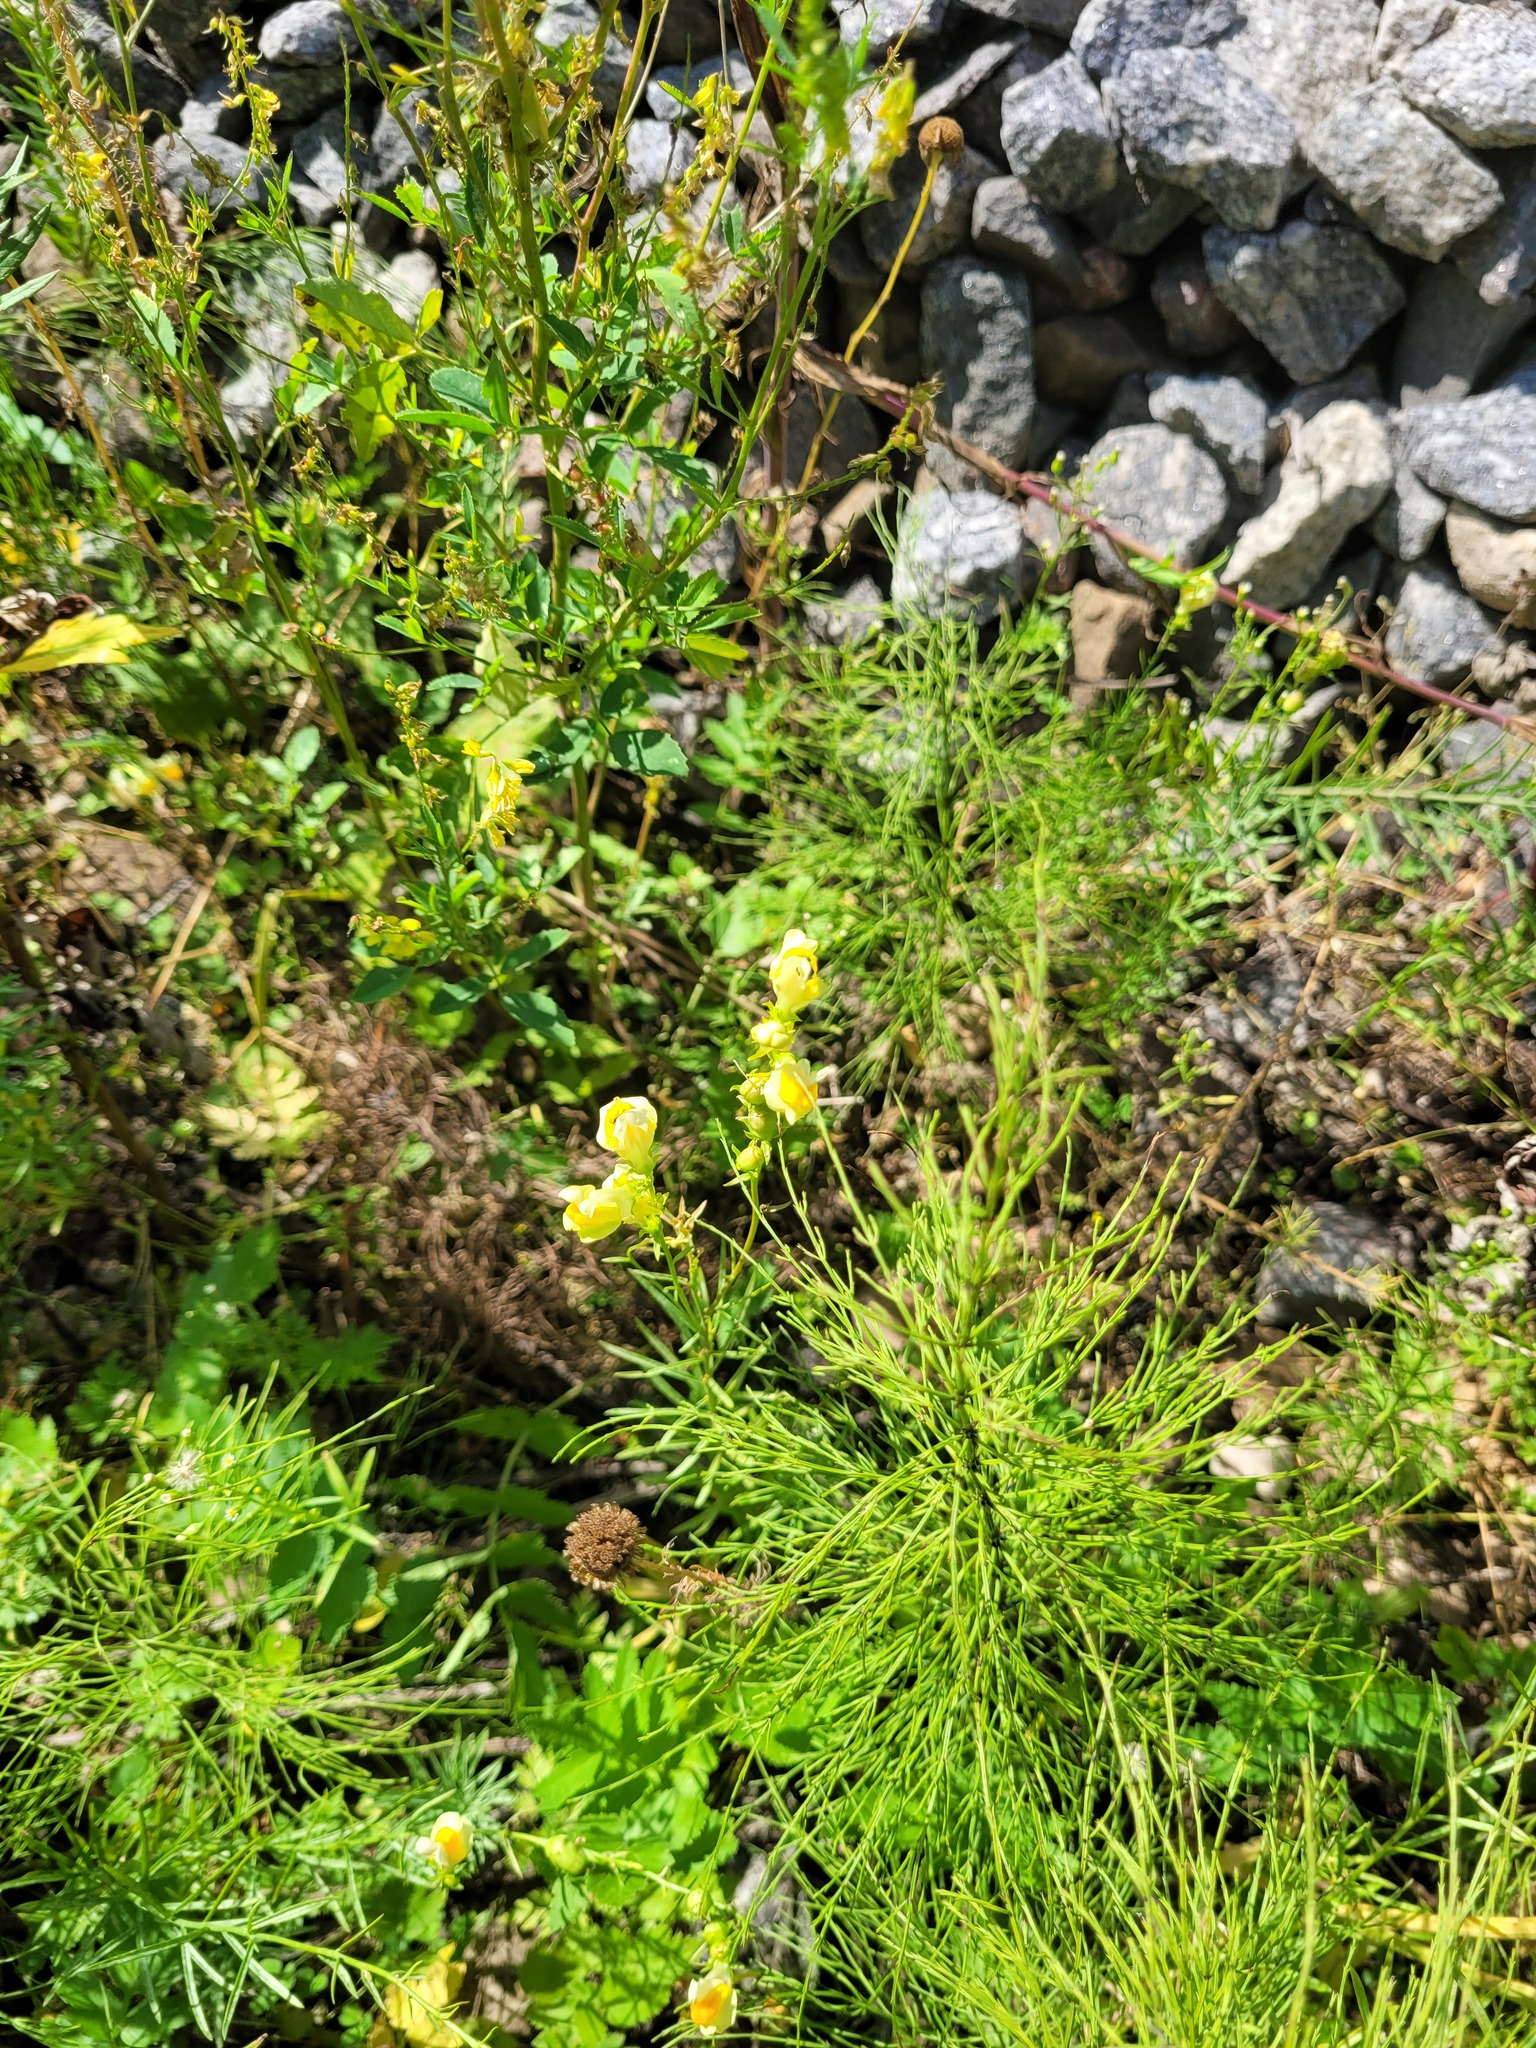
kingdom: Plantae
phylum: Tracheophyta
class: Magnoliopsida
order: Lamiales
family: Plantaginaceae
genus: Linaria
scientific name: Linaria vulgaris
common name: Butter and eggs
